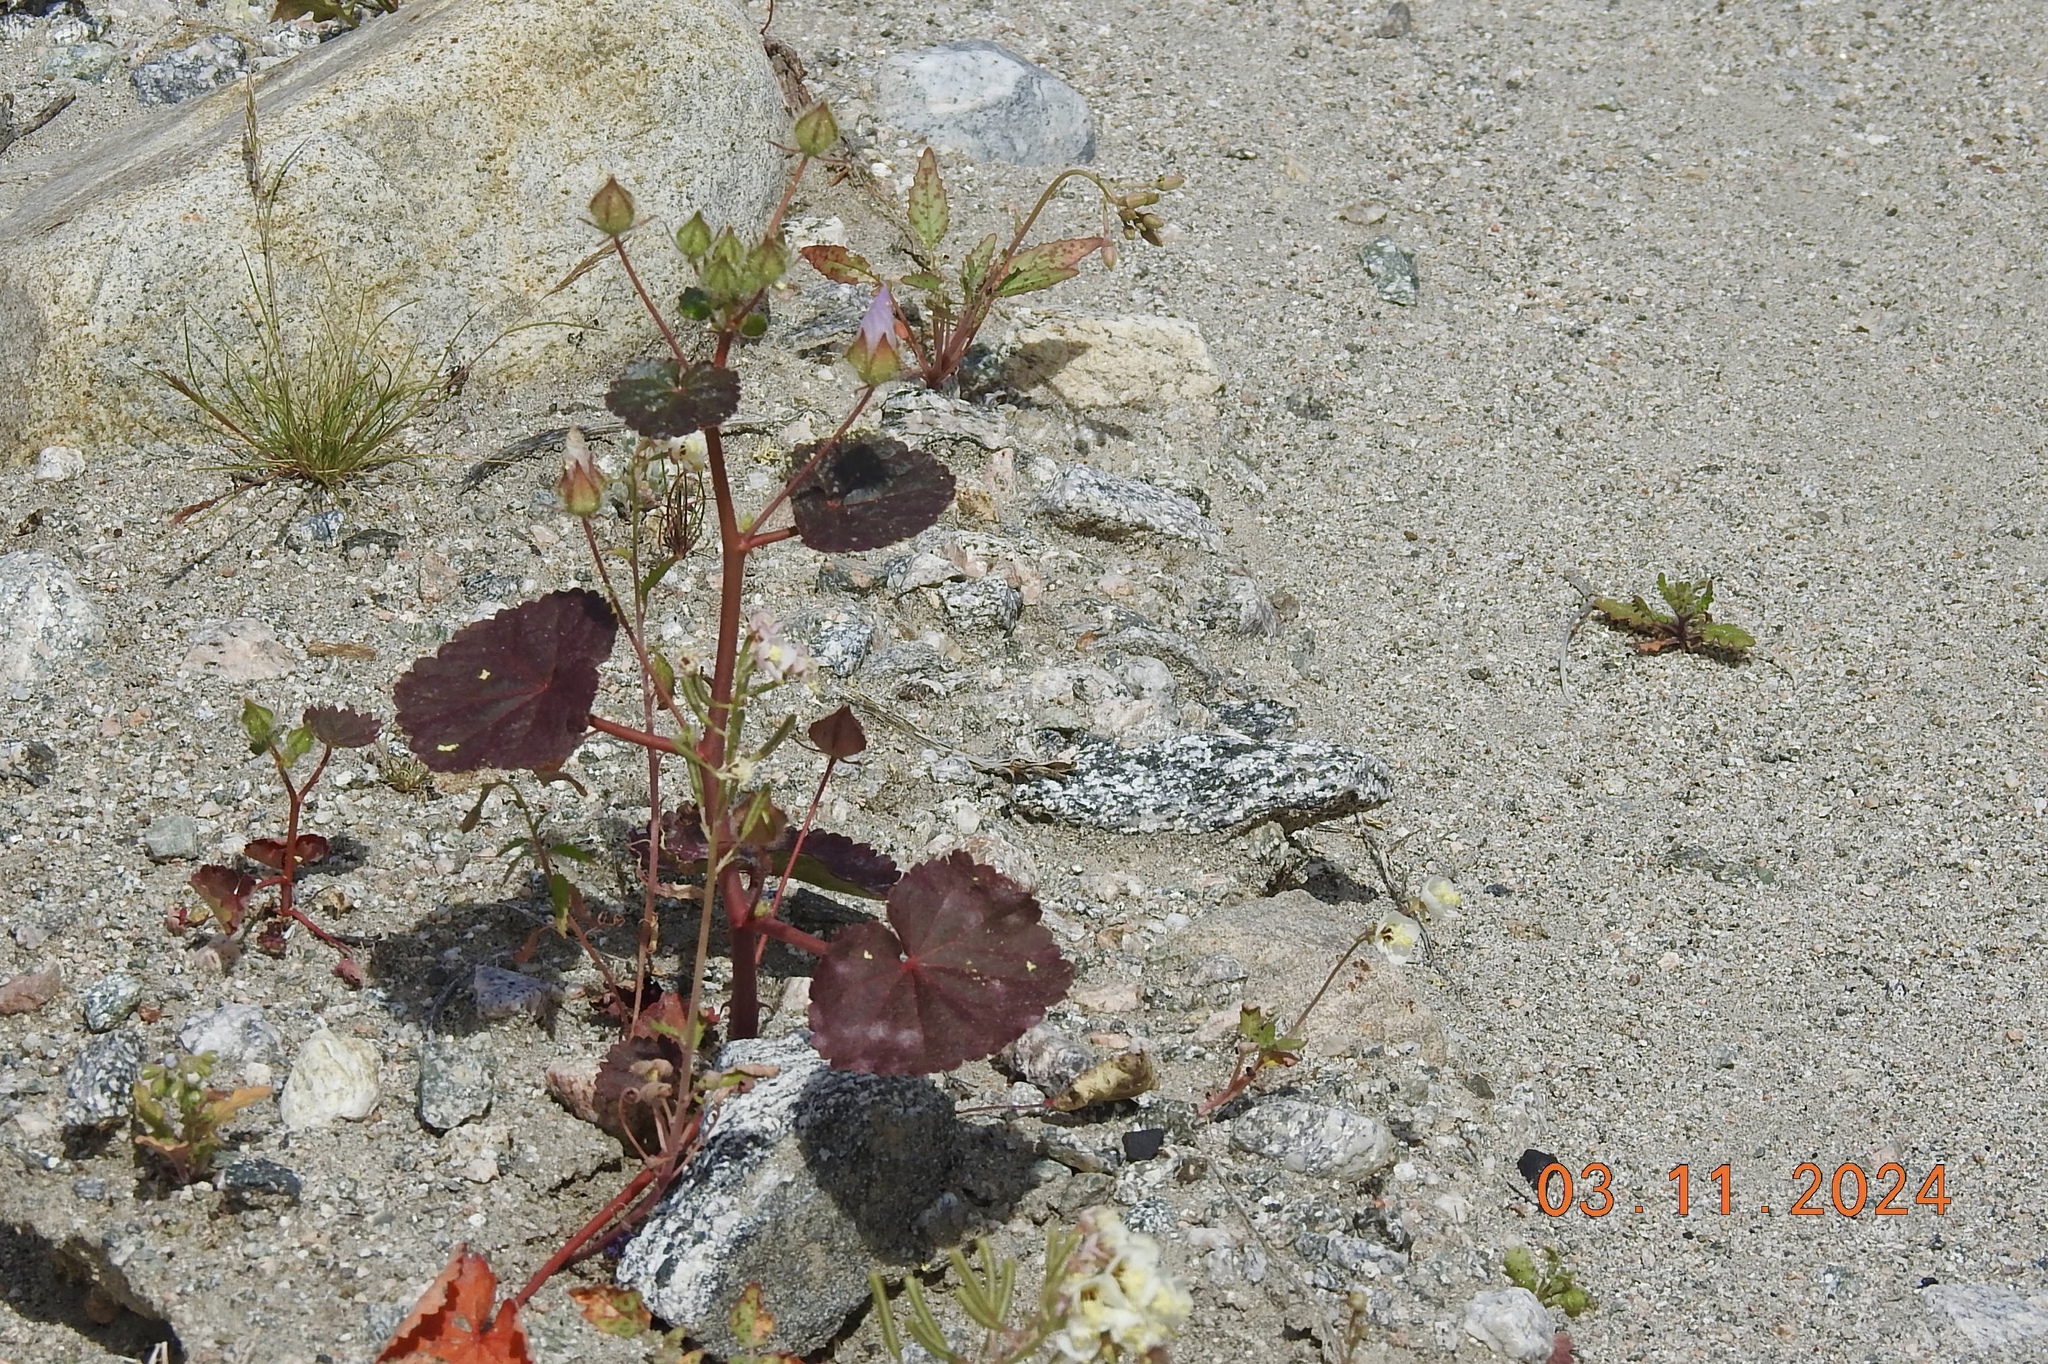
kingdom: Plantae
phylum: Tracheophyta
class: Magnoliopsida
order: Malvales
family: Malvaceae
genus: Eremalche
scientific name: Eremalche rotundifolia
